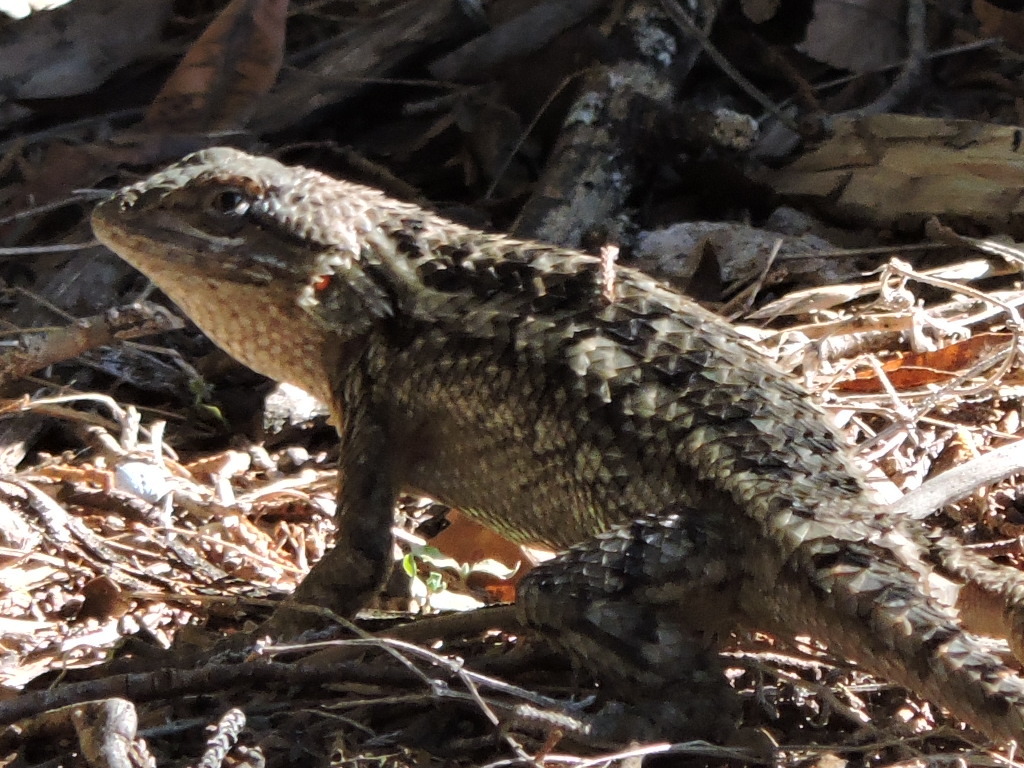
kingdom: Animalia
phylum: Chordata
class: Squamata
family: Phrynosomatidae
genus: Sceloporus
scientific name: Sceloporus olivaceus
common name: Texas spiny lizard
